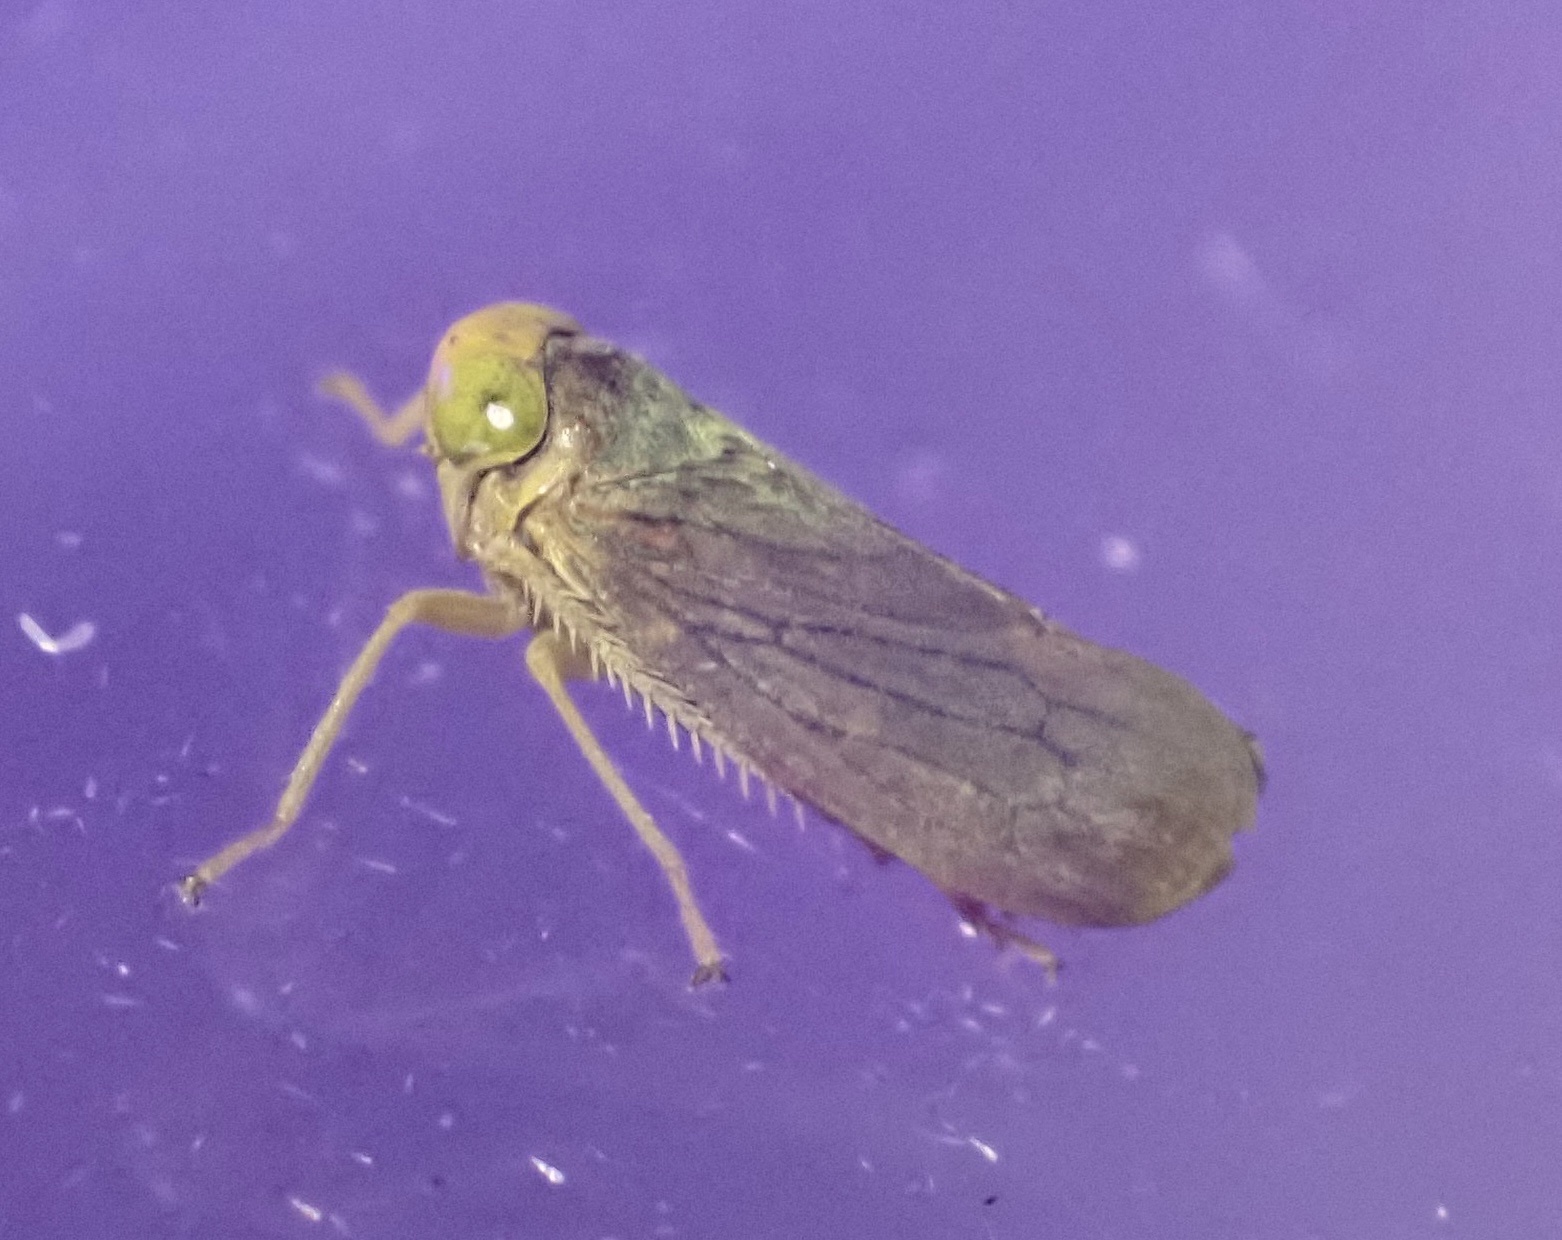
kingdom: Animalia
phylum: Arthropoda
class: Insecta
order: Hemiptera
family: Cicadellidae
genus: Jikradia
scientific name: Jikradia olitoria
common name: Coppery leafhopper
